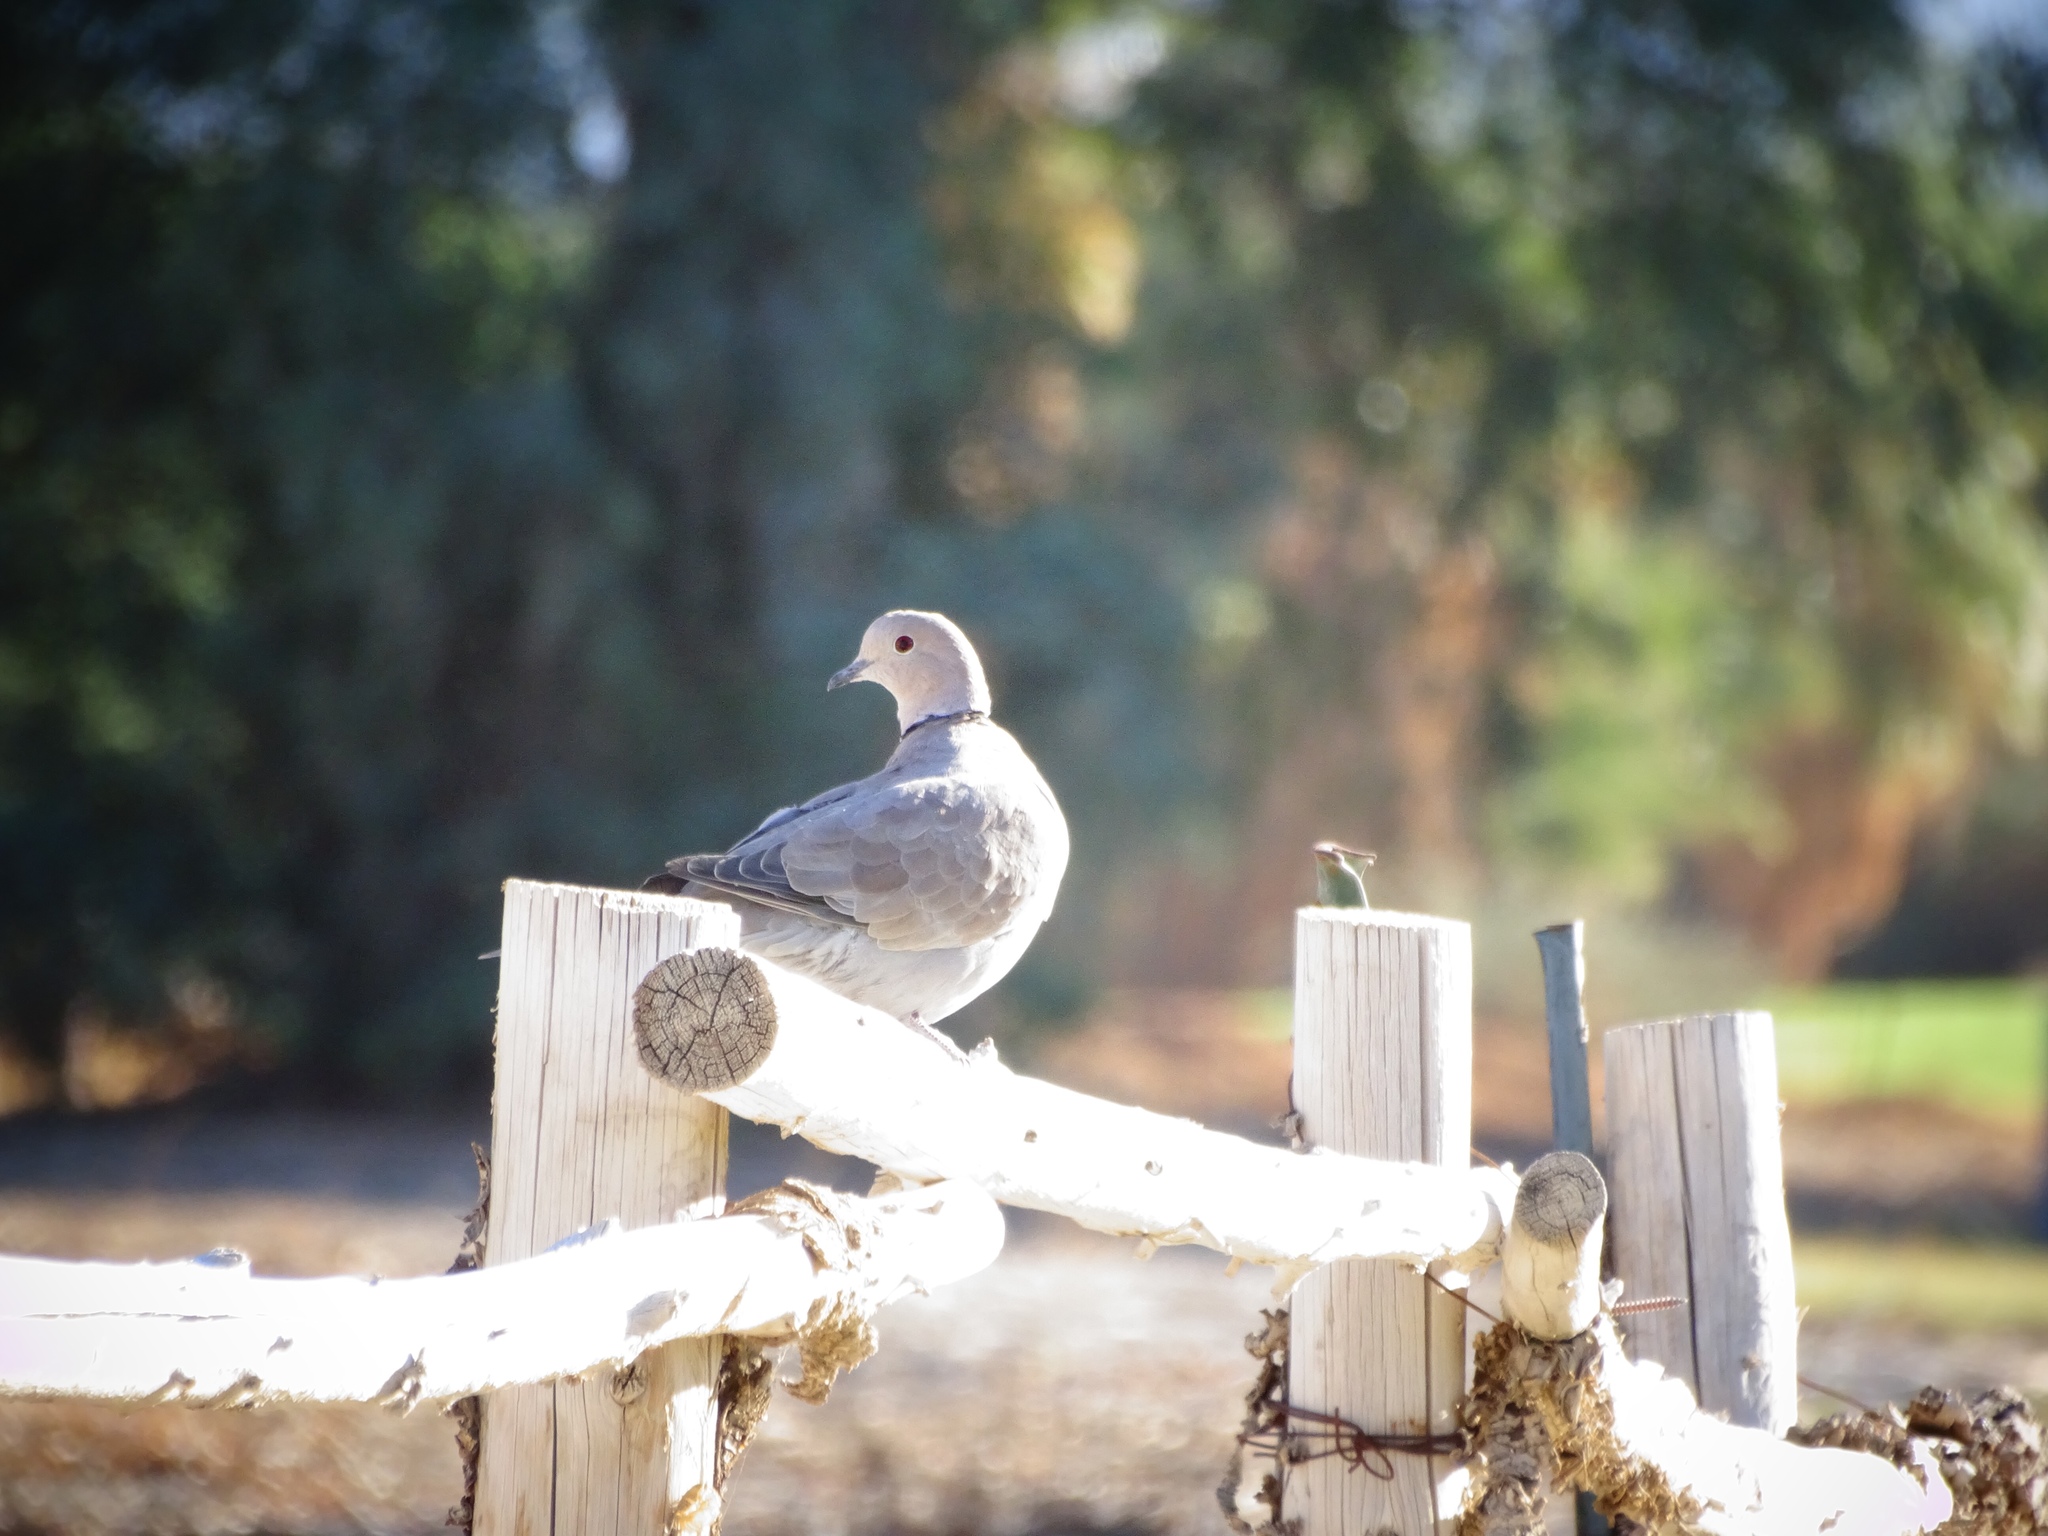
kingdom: Animalia
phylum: Chordata
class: Aves
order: Columbiformes
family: Columbidae
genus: Streptopelia
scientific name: Streptopelia decaocto
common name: Eurasian collared dove
